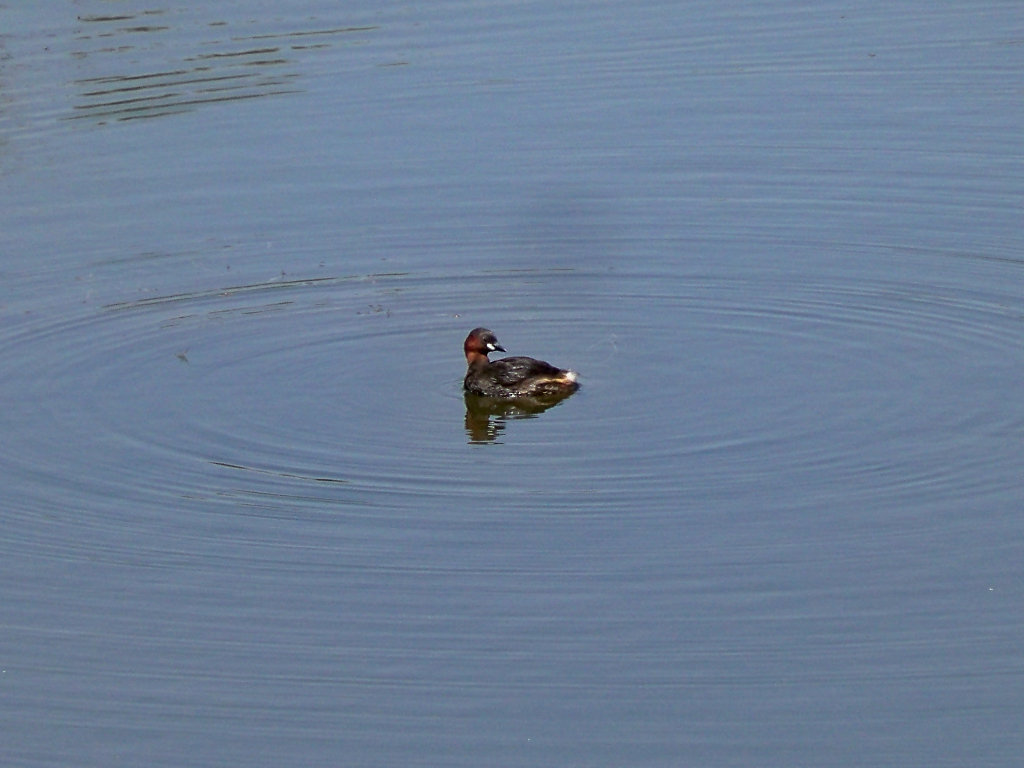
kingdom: Animalia
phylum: Chordata
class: Aves
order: Podicipediformes
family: Podicipedidae
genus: Tachybaptus
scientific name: Tachybaptus ruficollis
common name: Little grebe
